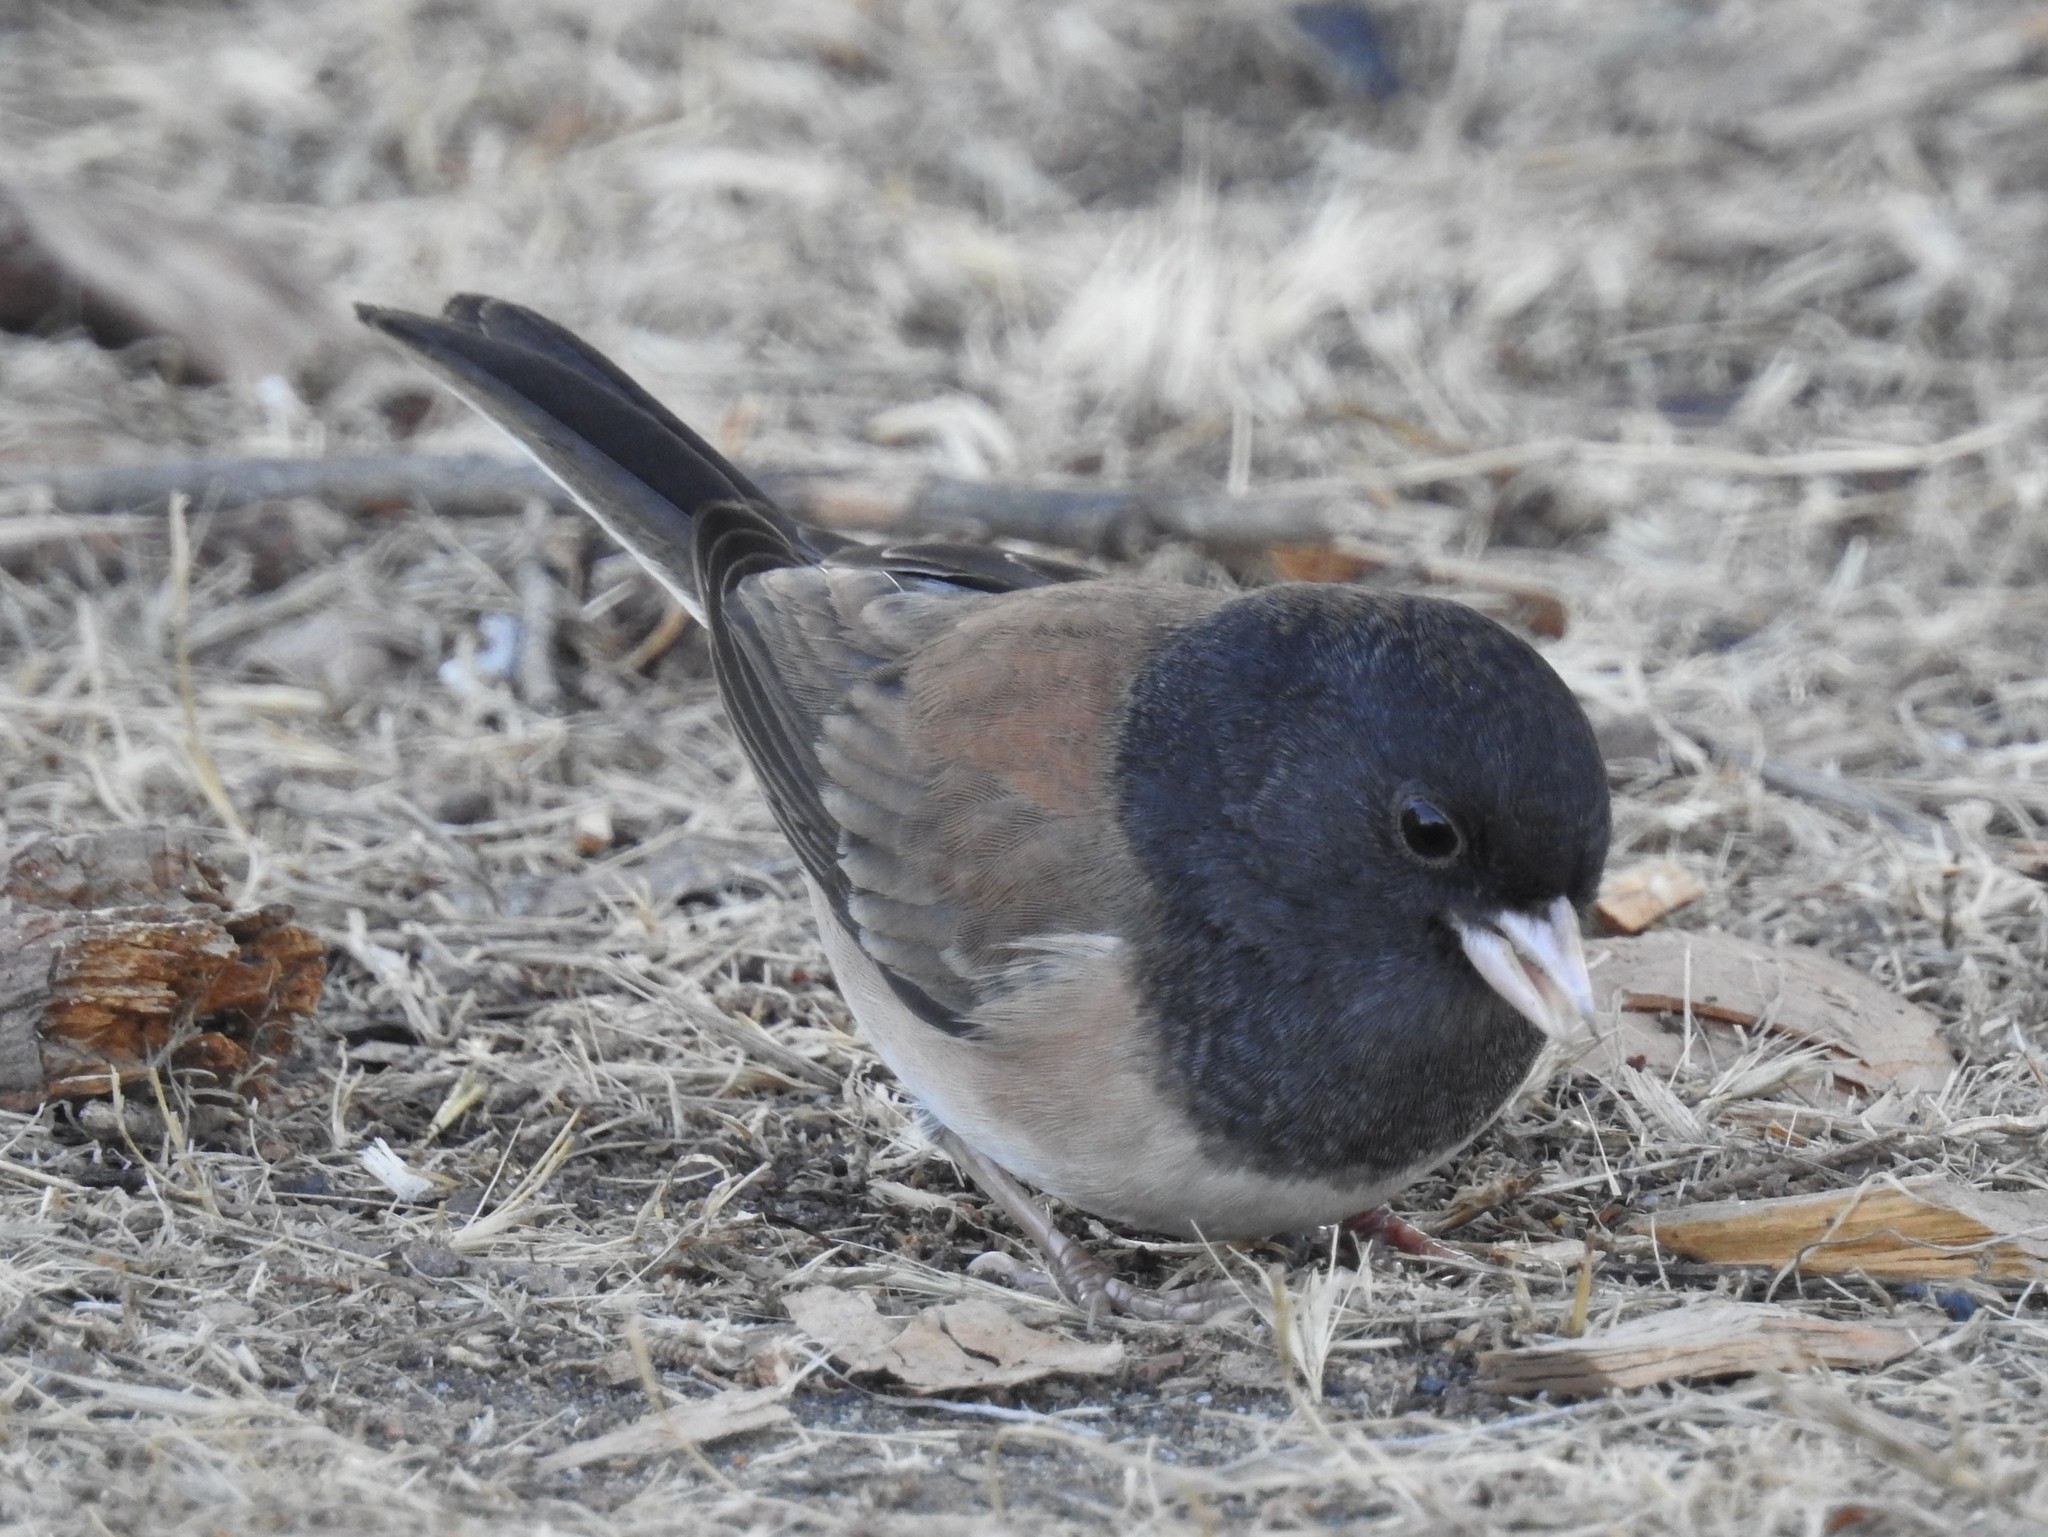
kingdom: Animalia
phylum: Chordata
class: Aves
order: Passeriformes
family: Passerellidae
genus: Junco
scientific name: Junco hyemalis
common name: Dark-eyed junco
